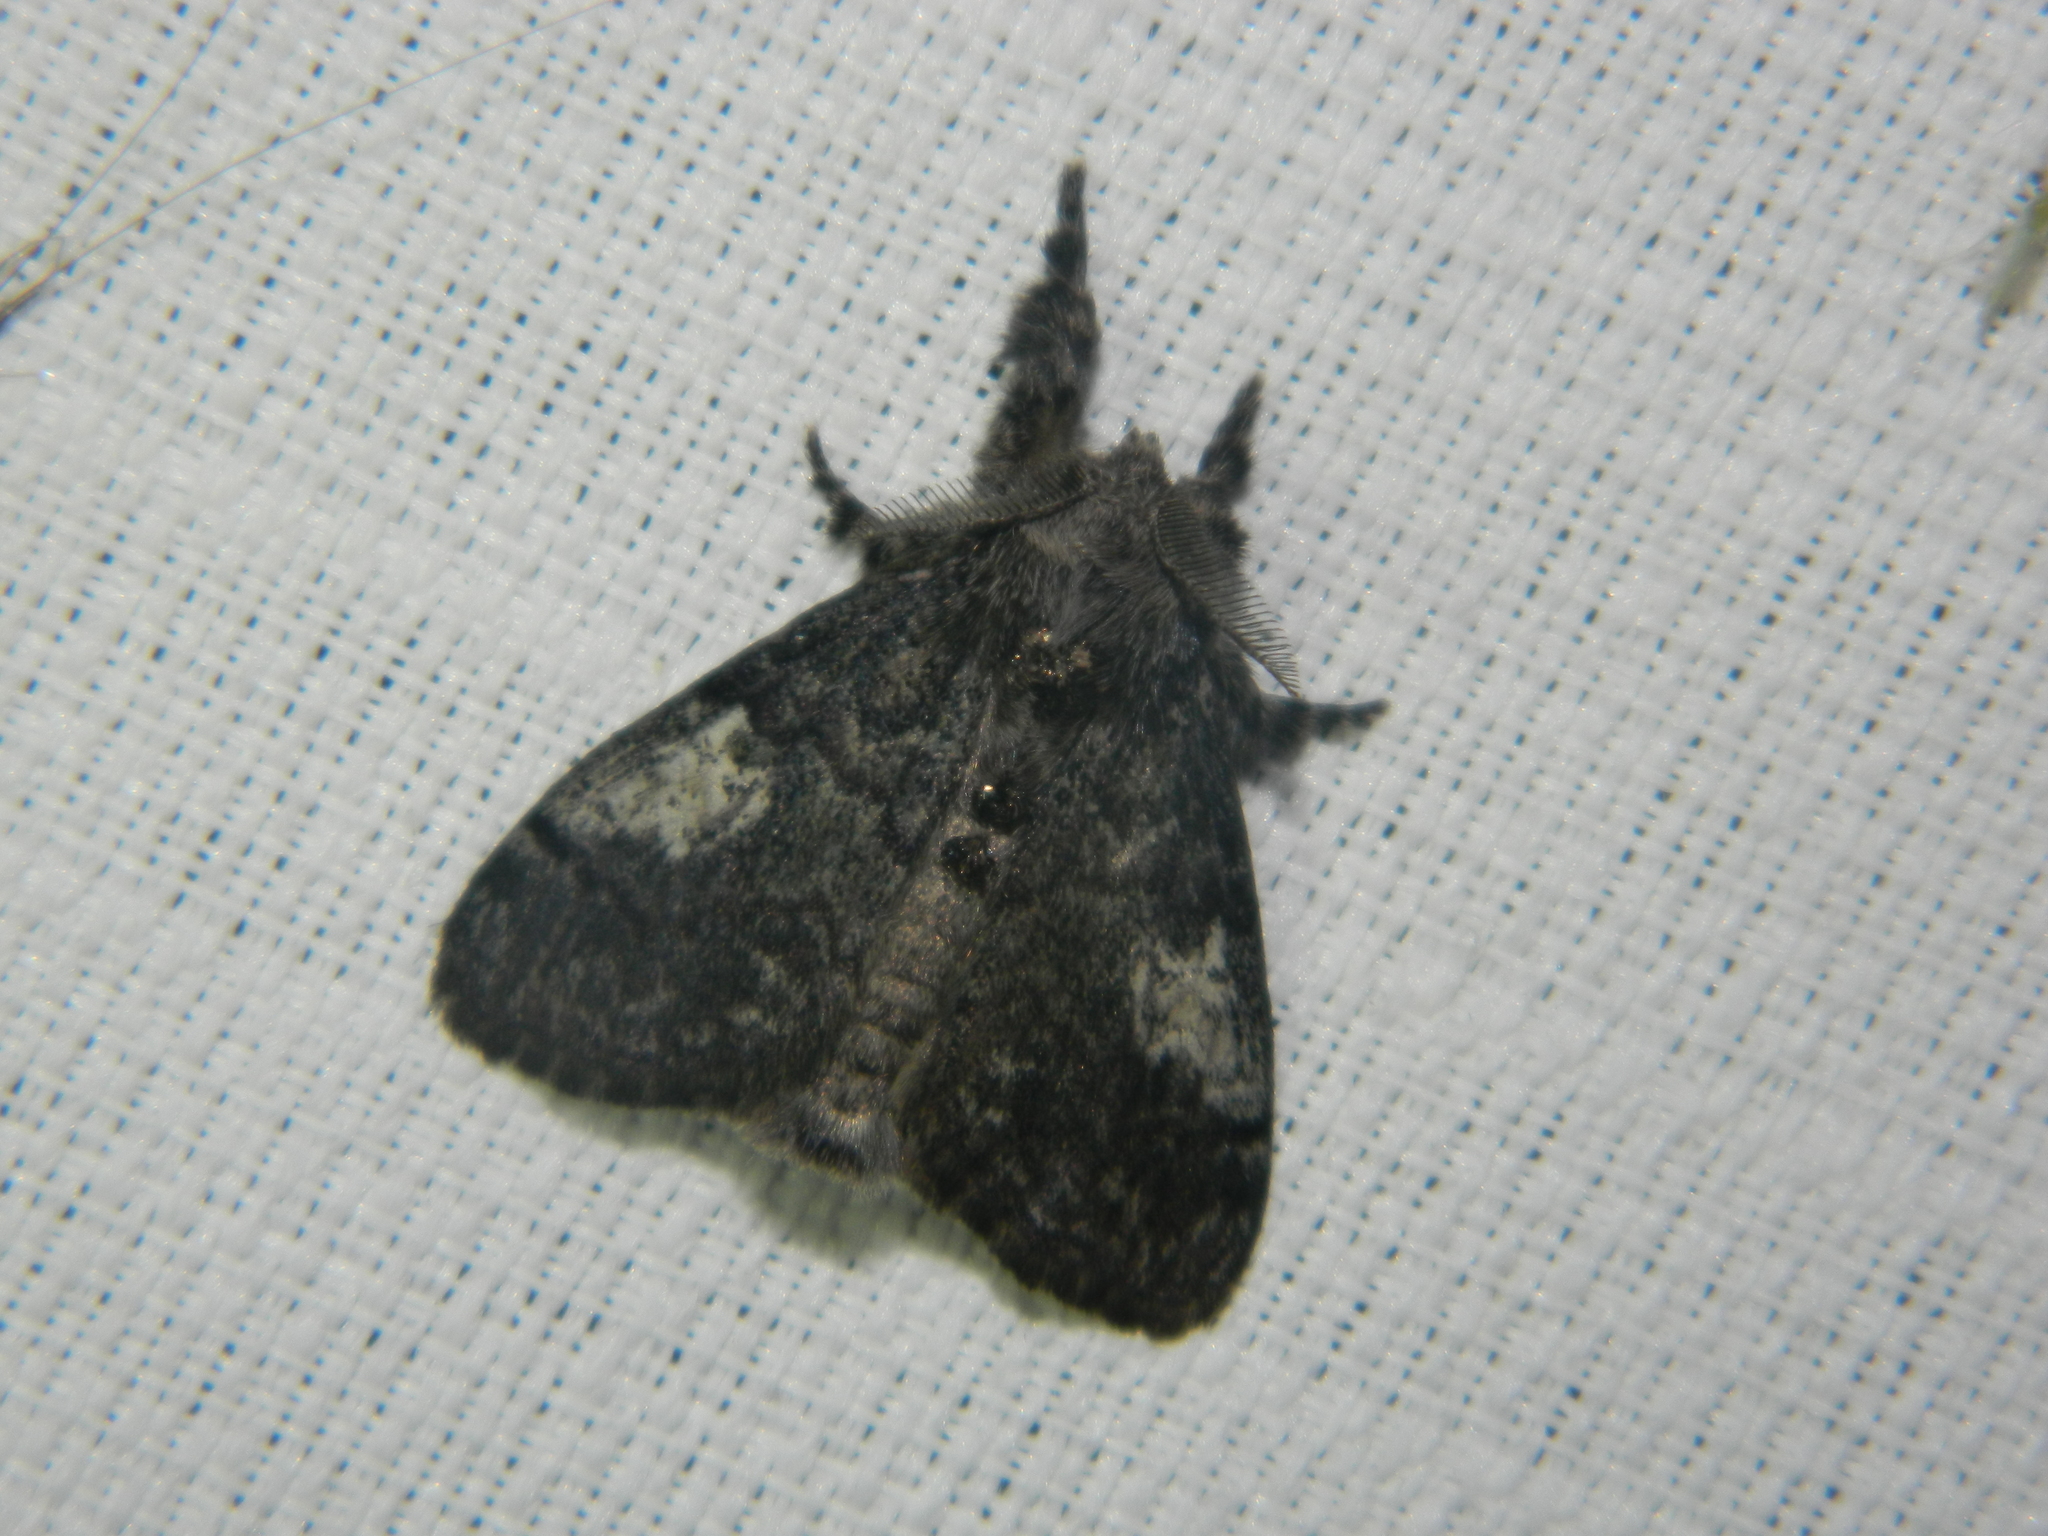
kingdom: Animalia
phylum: Arthropoda
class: Insecta
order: Lepidoptera
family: Erebidae
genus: Dasychira
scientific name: Dasychira vagans
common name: Variable tussock moth
